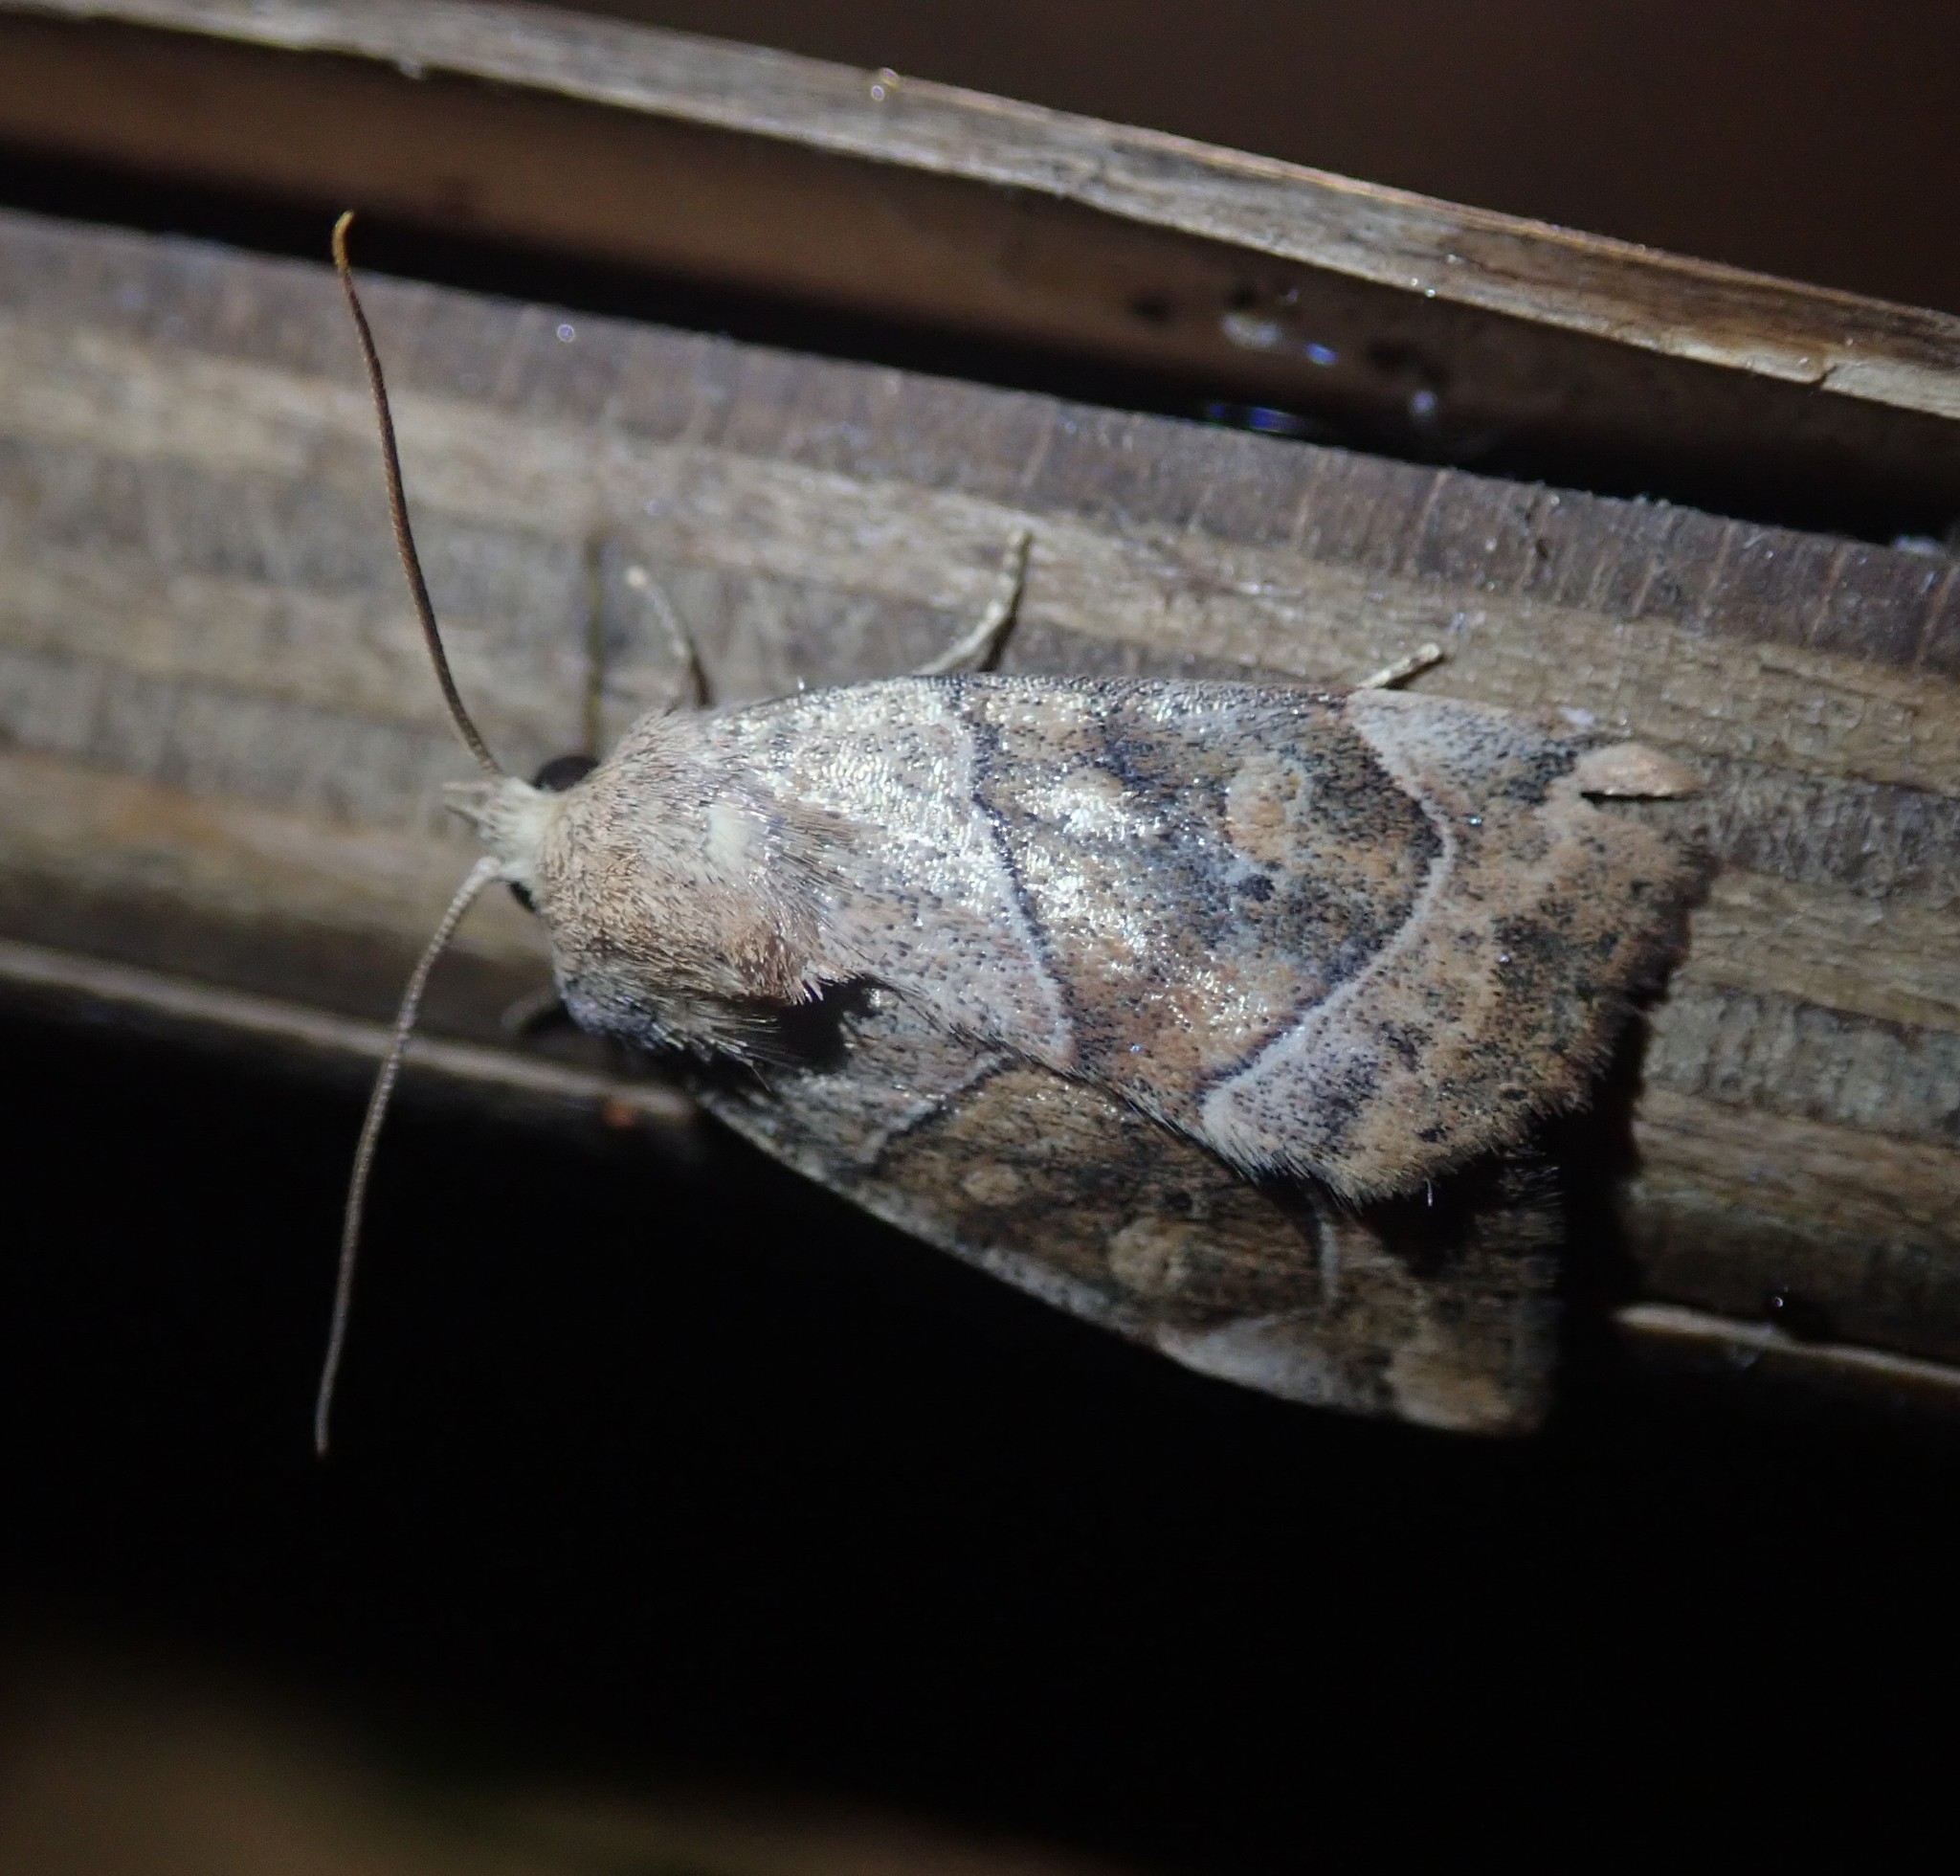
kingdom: Animalia
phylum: Arthropoda
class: Insecta
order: Lepidoptera
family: Noctuidae
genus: Cosmia
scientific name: Cosmia trapezina
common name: Dun-bar
